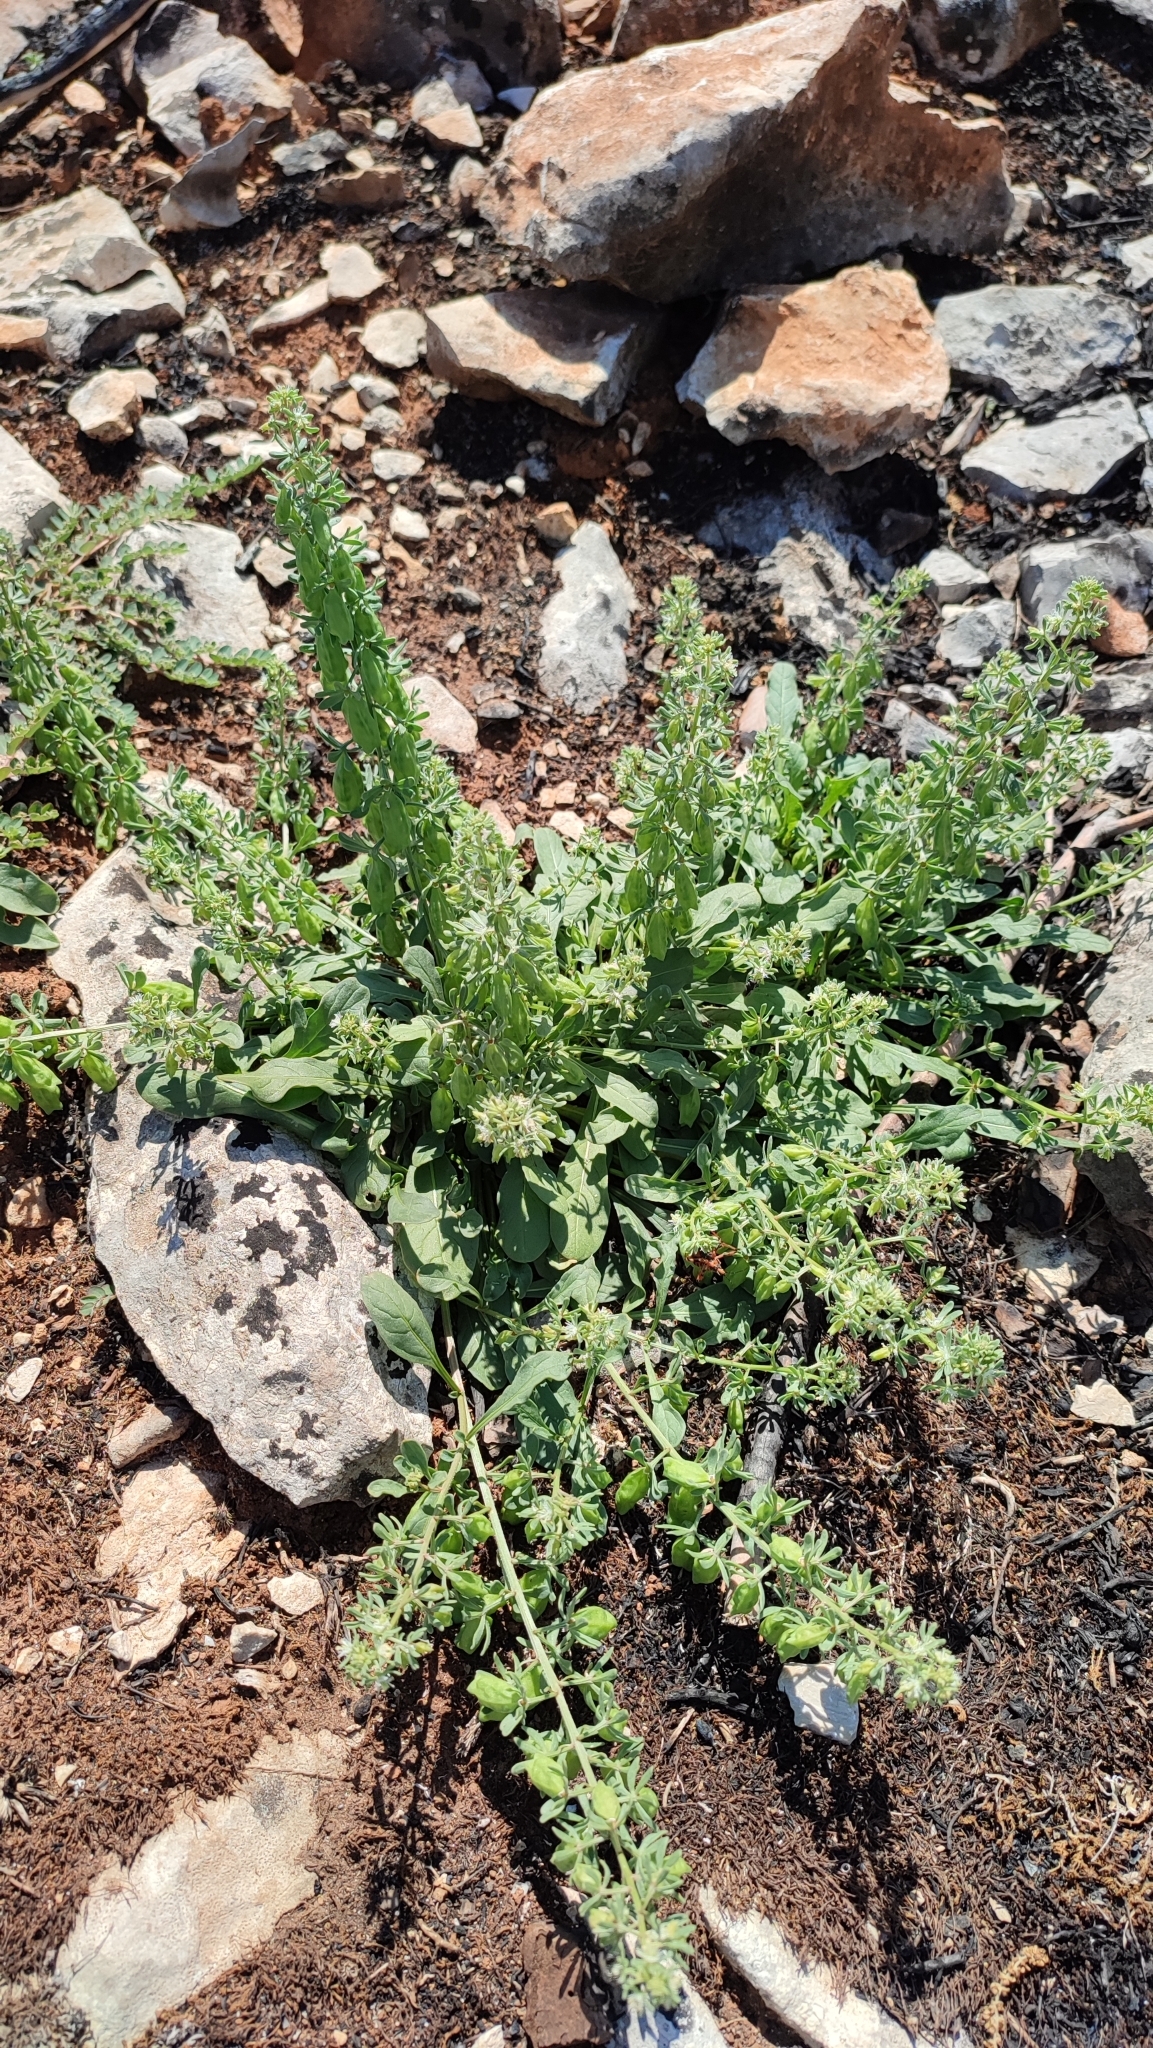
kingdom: Plantae
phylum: Tracheophyta
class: Magnoliopsida
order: Brassicales
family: Resedaceae
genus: Reseda
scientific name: Reseda phyteuma
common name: Corn mignonette
